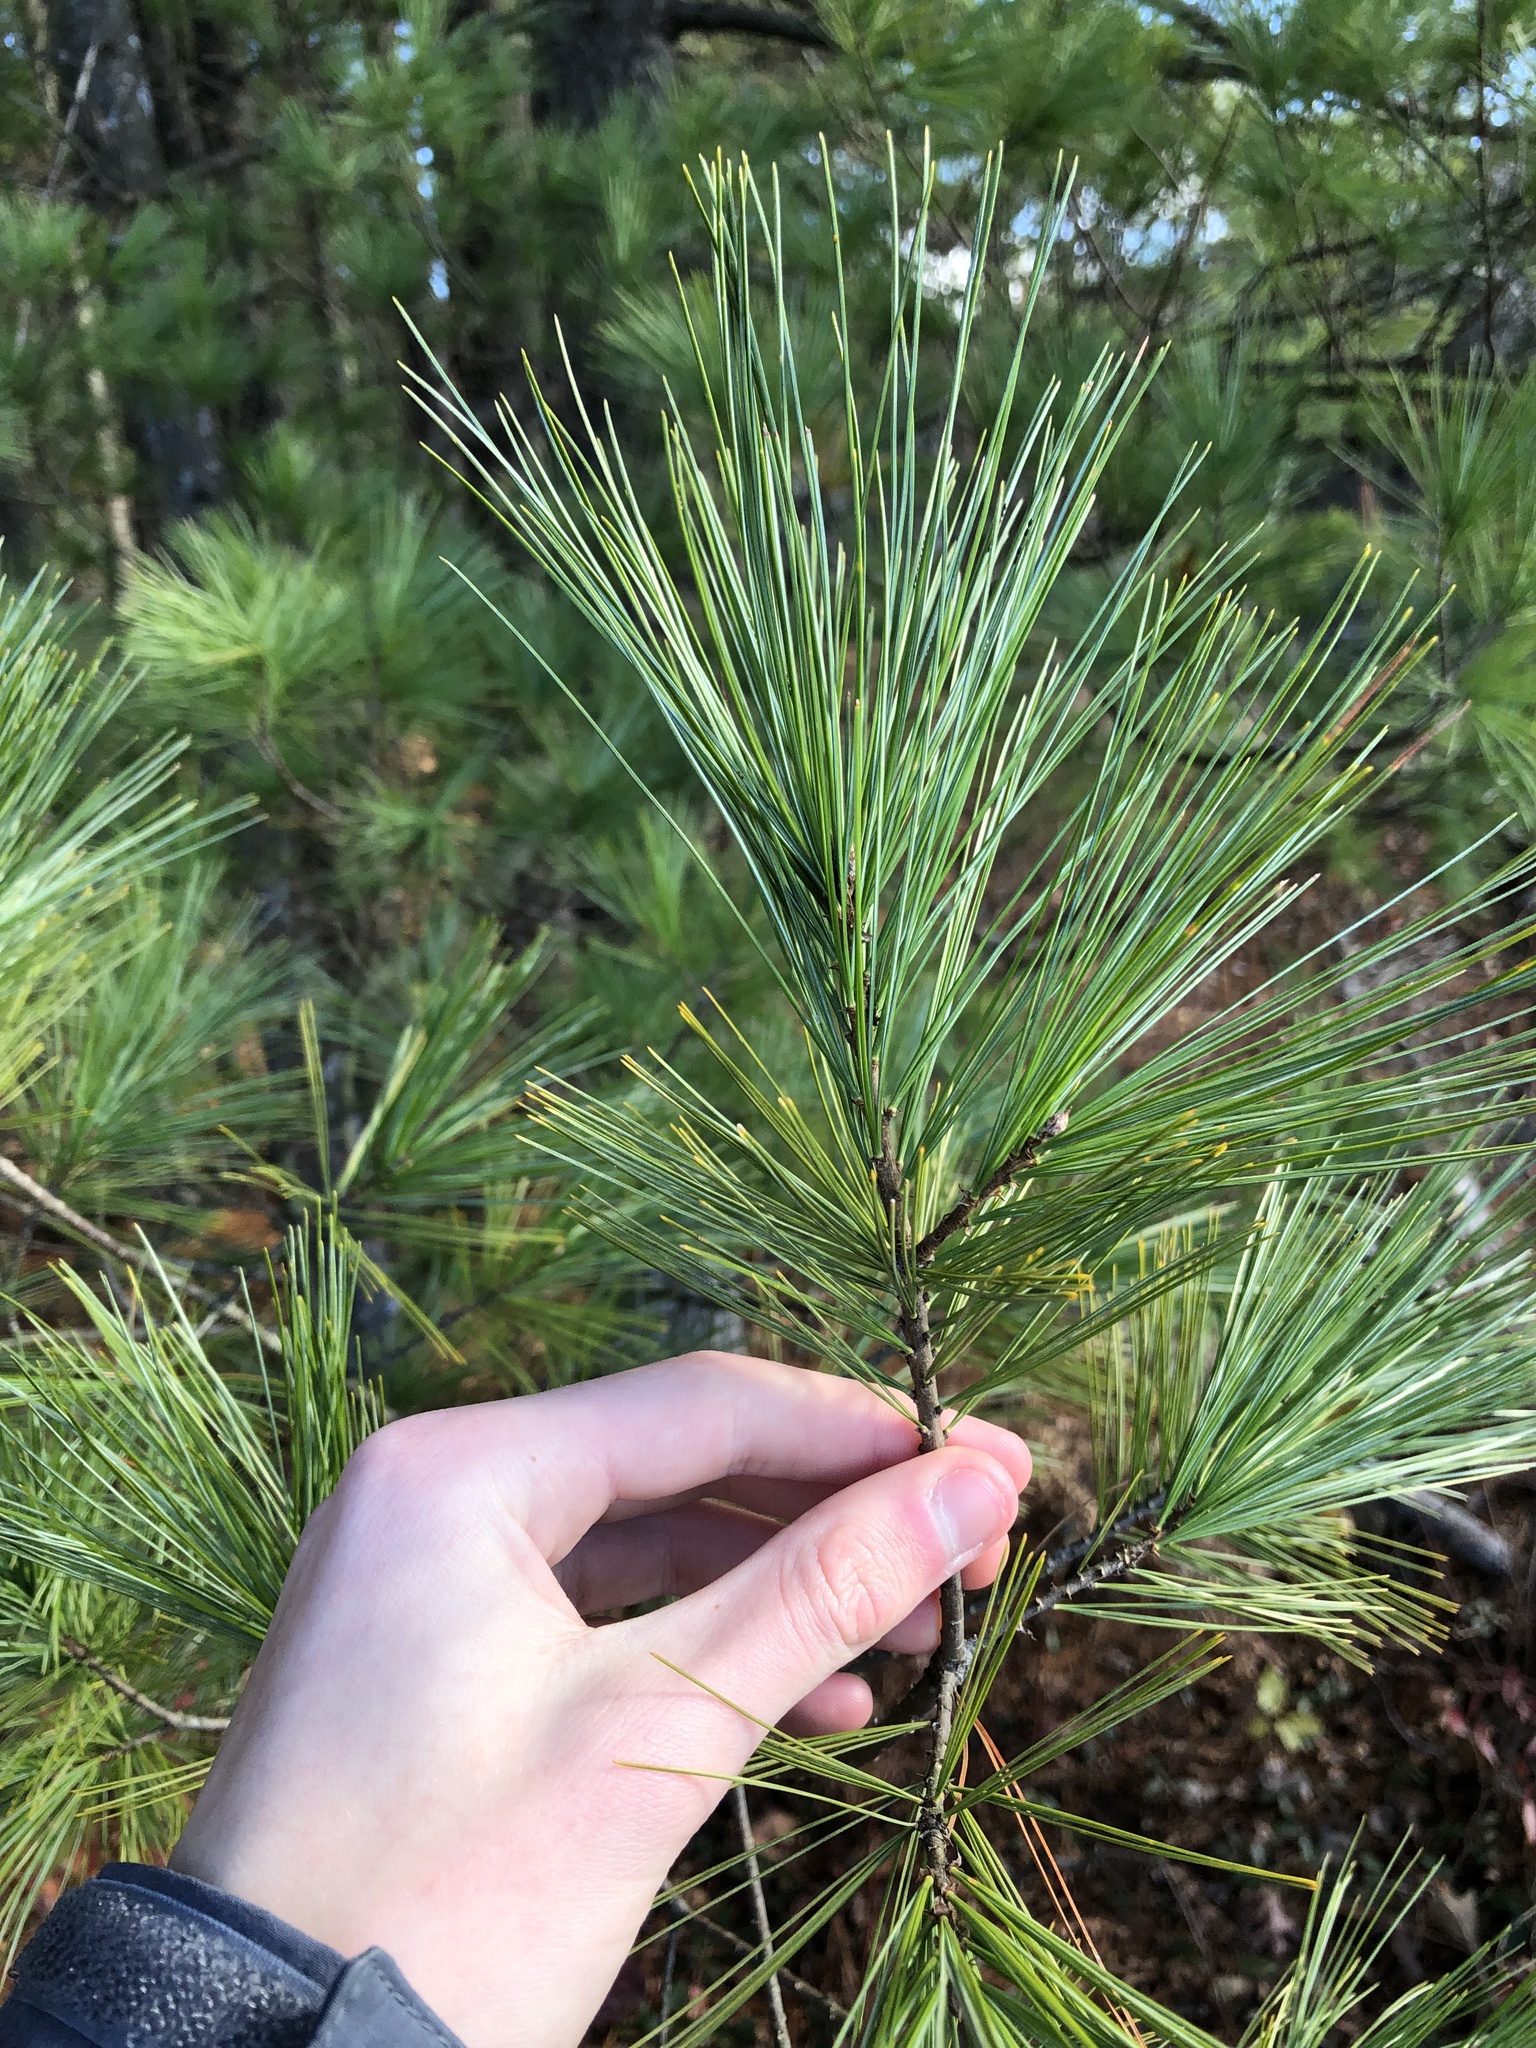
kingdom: Plantae
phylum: Tracheophyta
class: Pinopsida
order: Pinales
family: Pinaceae
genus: Pinus
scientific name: Pinus strobus
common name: Weymouth pine
